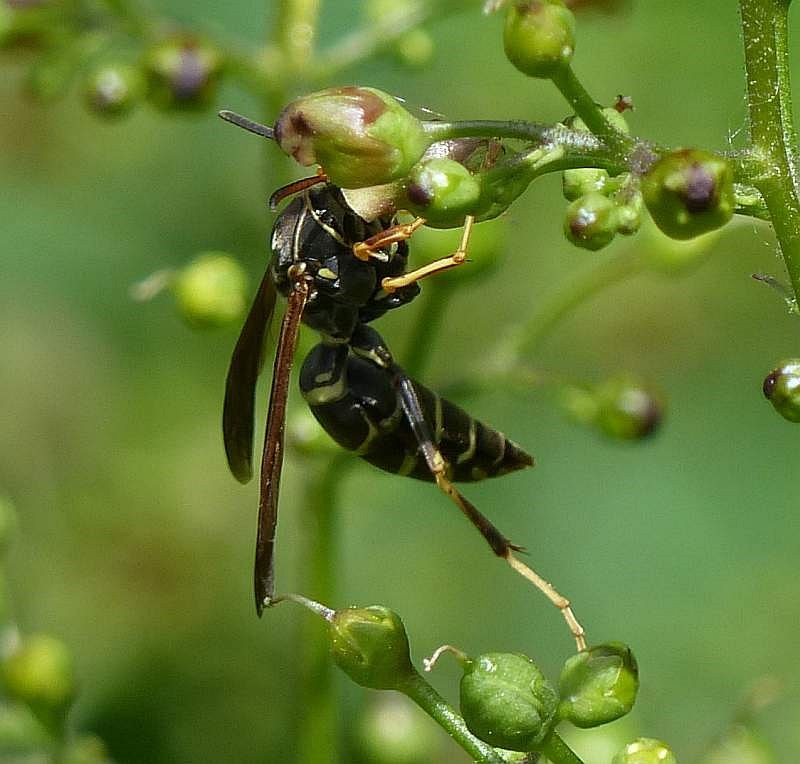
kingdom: Animalia
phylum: Arthropoda
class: Insecta
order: Hymenoptera
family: Eumenidae
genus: Polistes
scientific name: Polistes fuscatus
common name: Dark paper wasp
